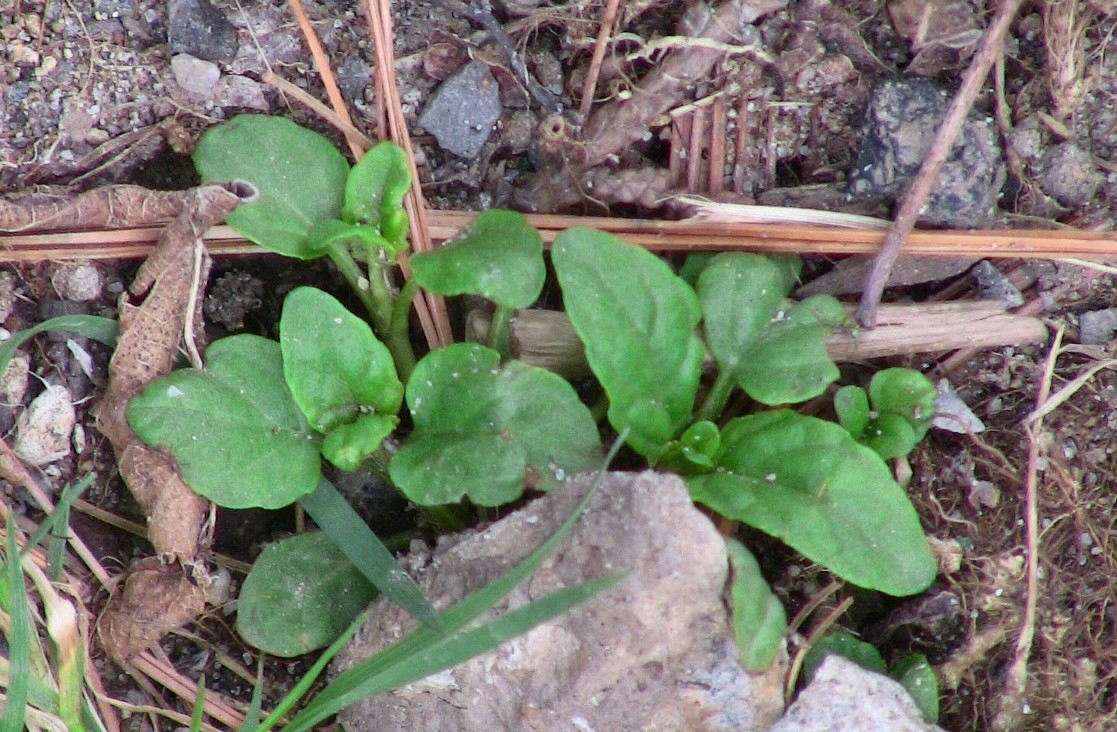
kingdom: Plantae
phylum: Tracheophyta
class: Magnoliopsida
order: Lamiales
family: Lamiaceae
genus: Prunella
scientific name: Prunella vulgaris
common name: Heal-all
